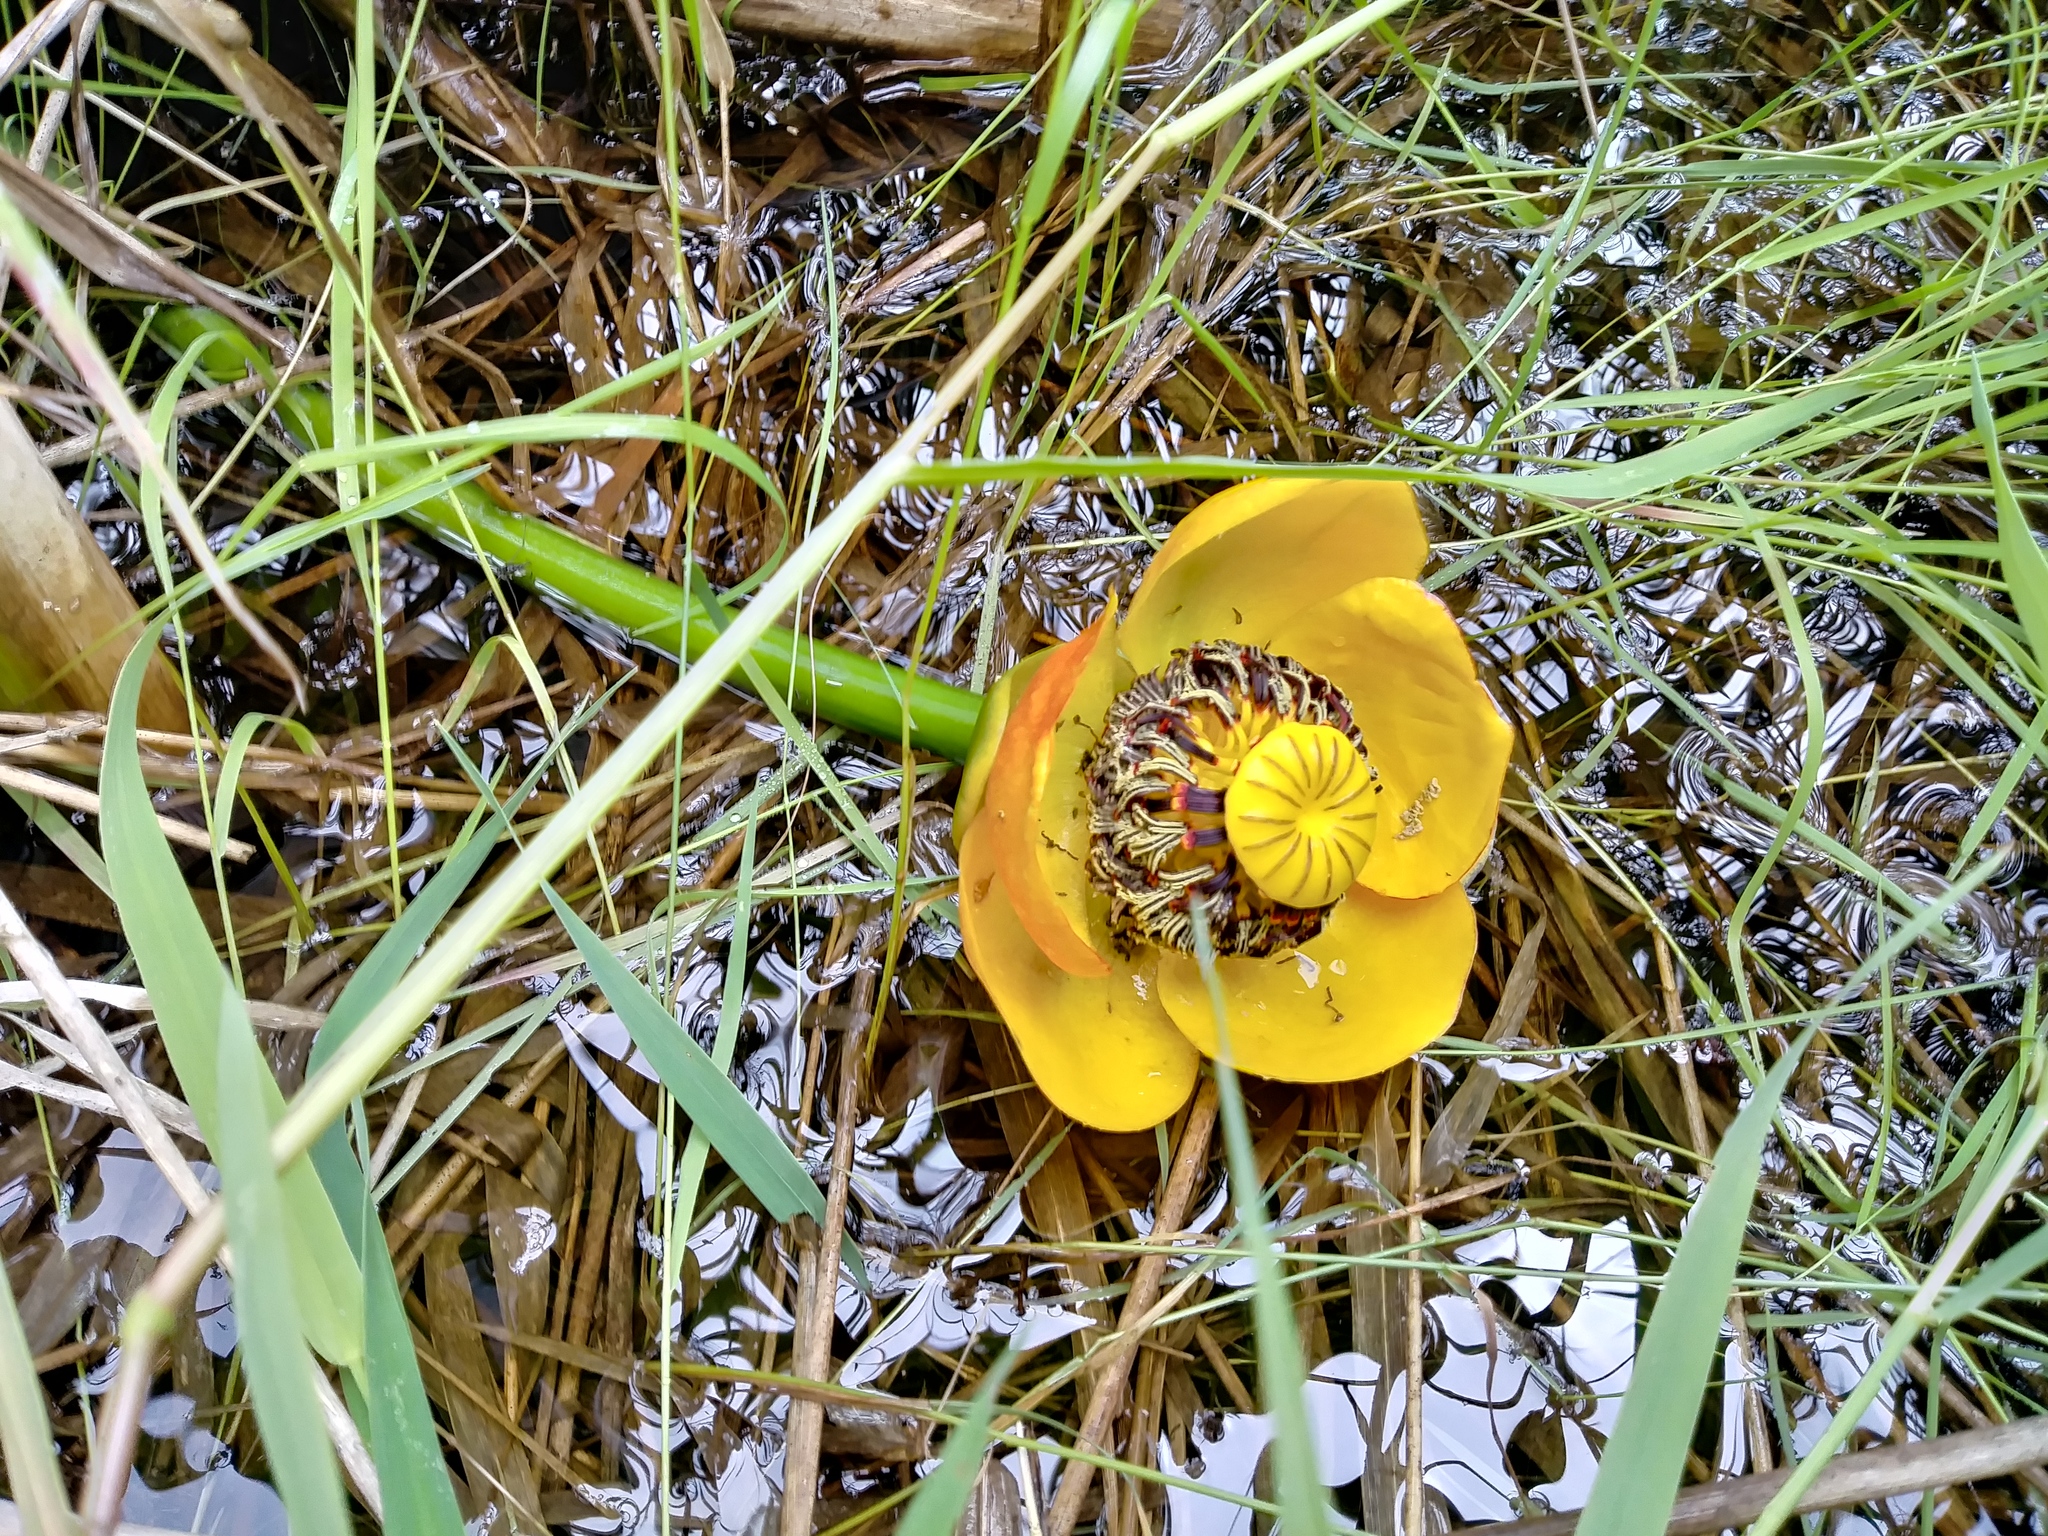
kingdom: Plantae
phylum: Tracheophyta
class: Magnoliopsida
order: Nymphaeales
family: Nymphaeaceae
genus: Nuphar
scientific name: Nuphar polysepala
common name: Rocky mountain cow-lily
